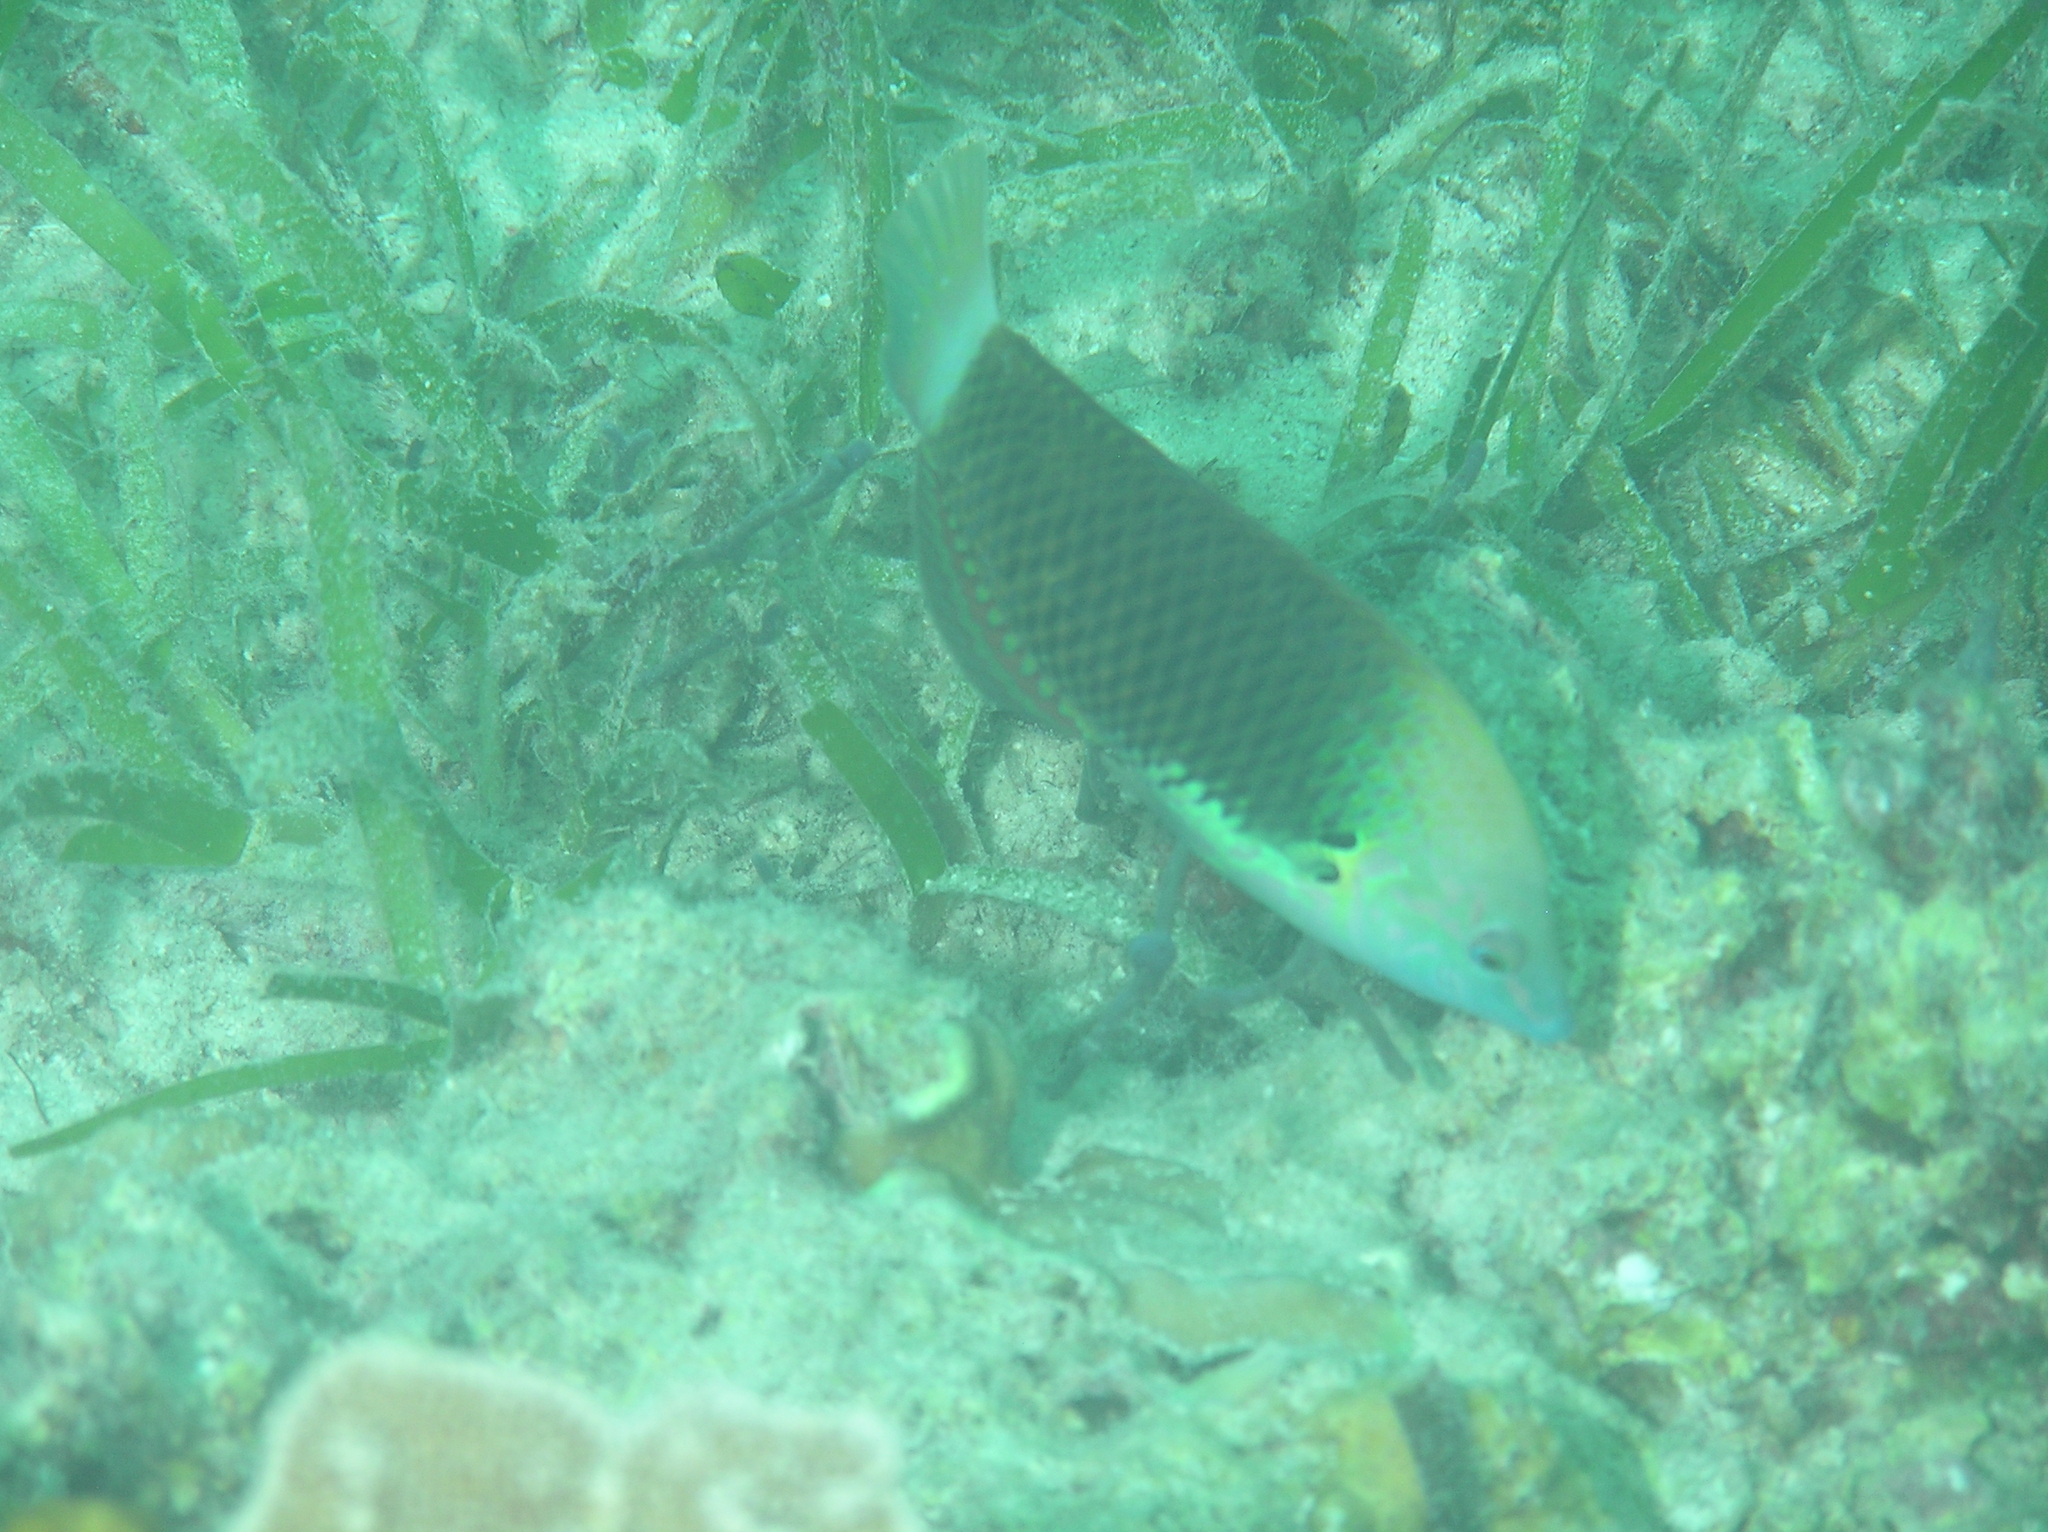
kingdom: Animalia
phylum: Chordata
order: Perciformes
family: Labridae
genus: Halichoeres
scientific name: Halichoeres podostigma
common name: Axil spot wrasse
